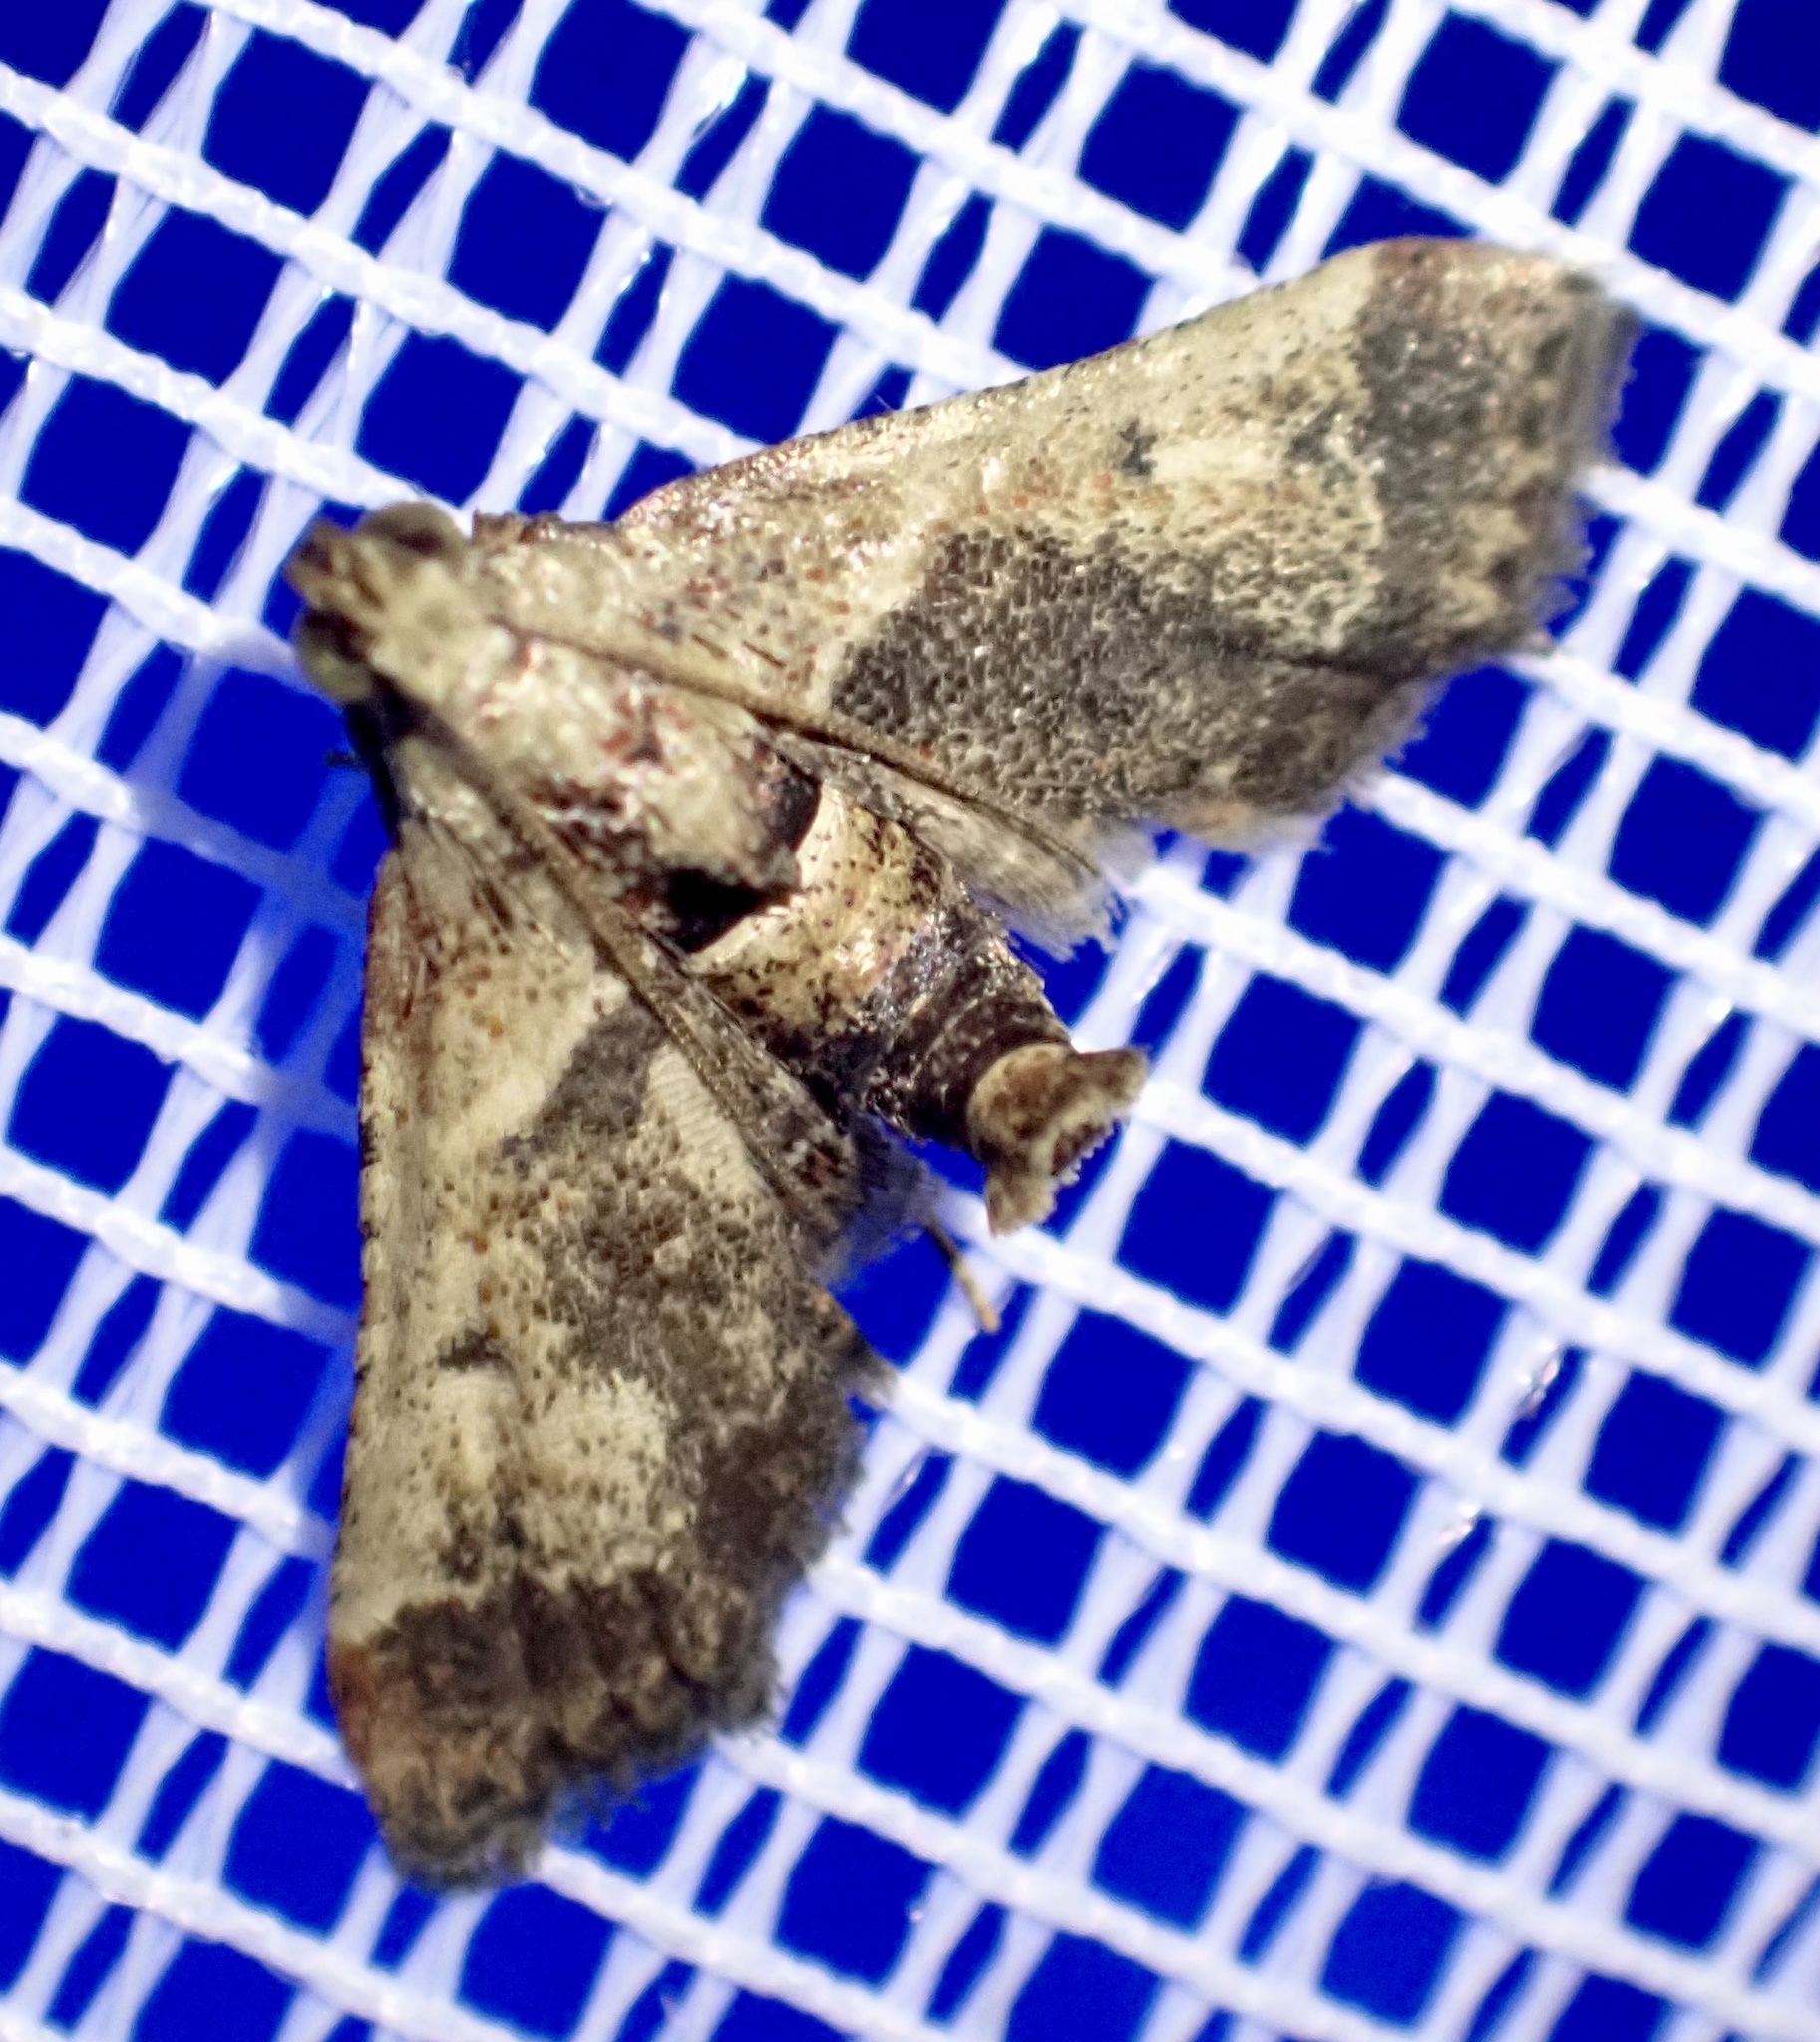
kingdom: Animalia
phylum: Arthropoda
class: Insecta
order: Lepidoptera
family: Pyralidae
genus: Tegulifera
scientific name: Tegulifera tristiculalis
